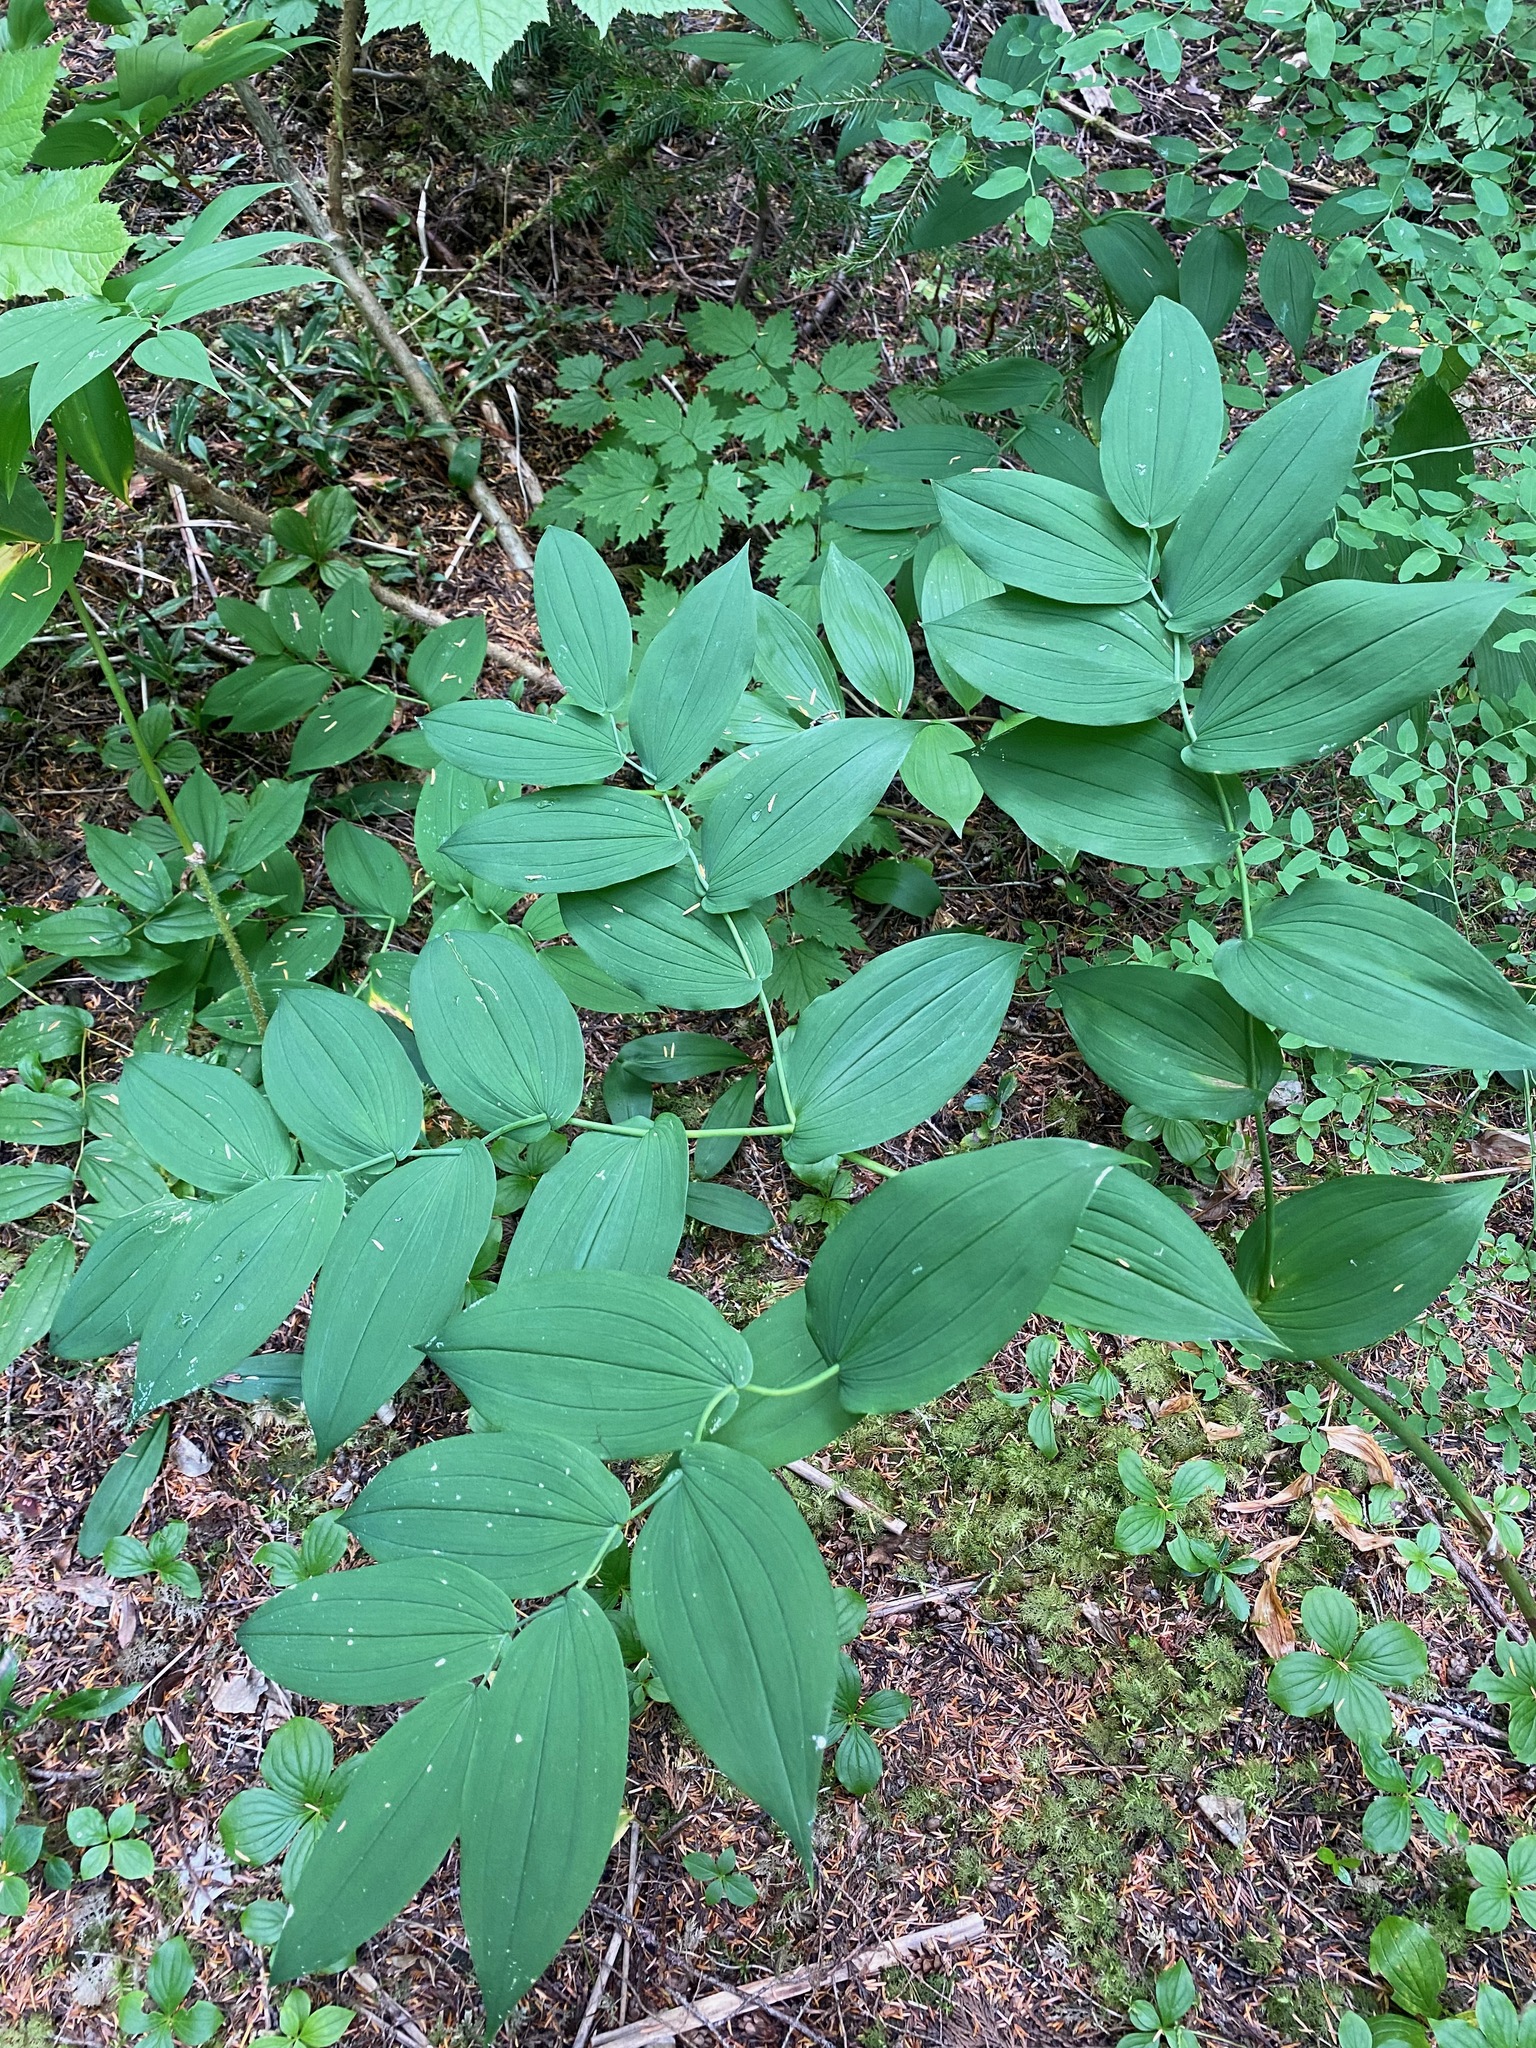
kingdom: Plantae
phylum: Tracheophyta
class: Liliopsida
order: Liliales
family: Liliaceae
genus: Streptopus
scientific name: Streptopus amplexifolius
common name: Clasp twisted stalk
